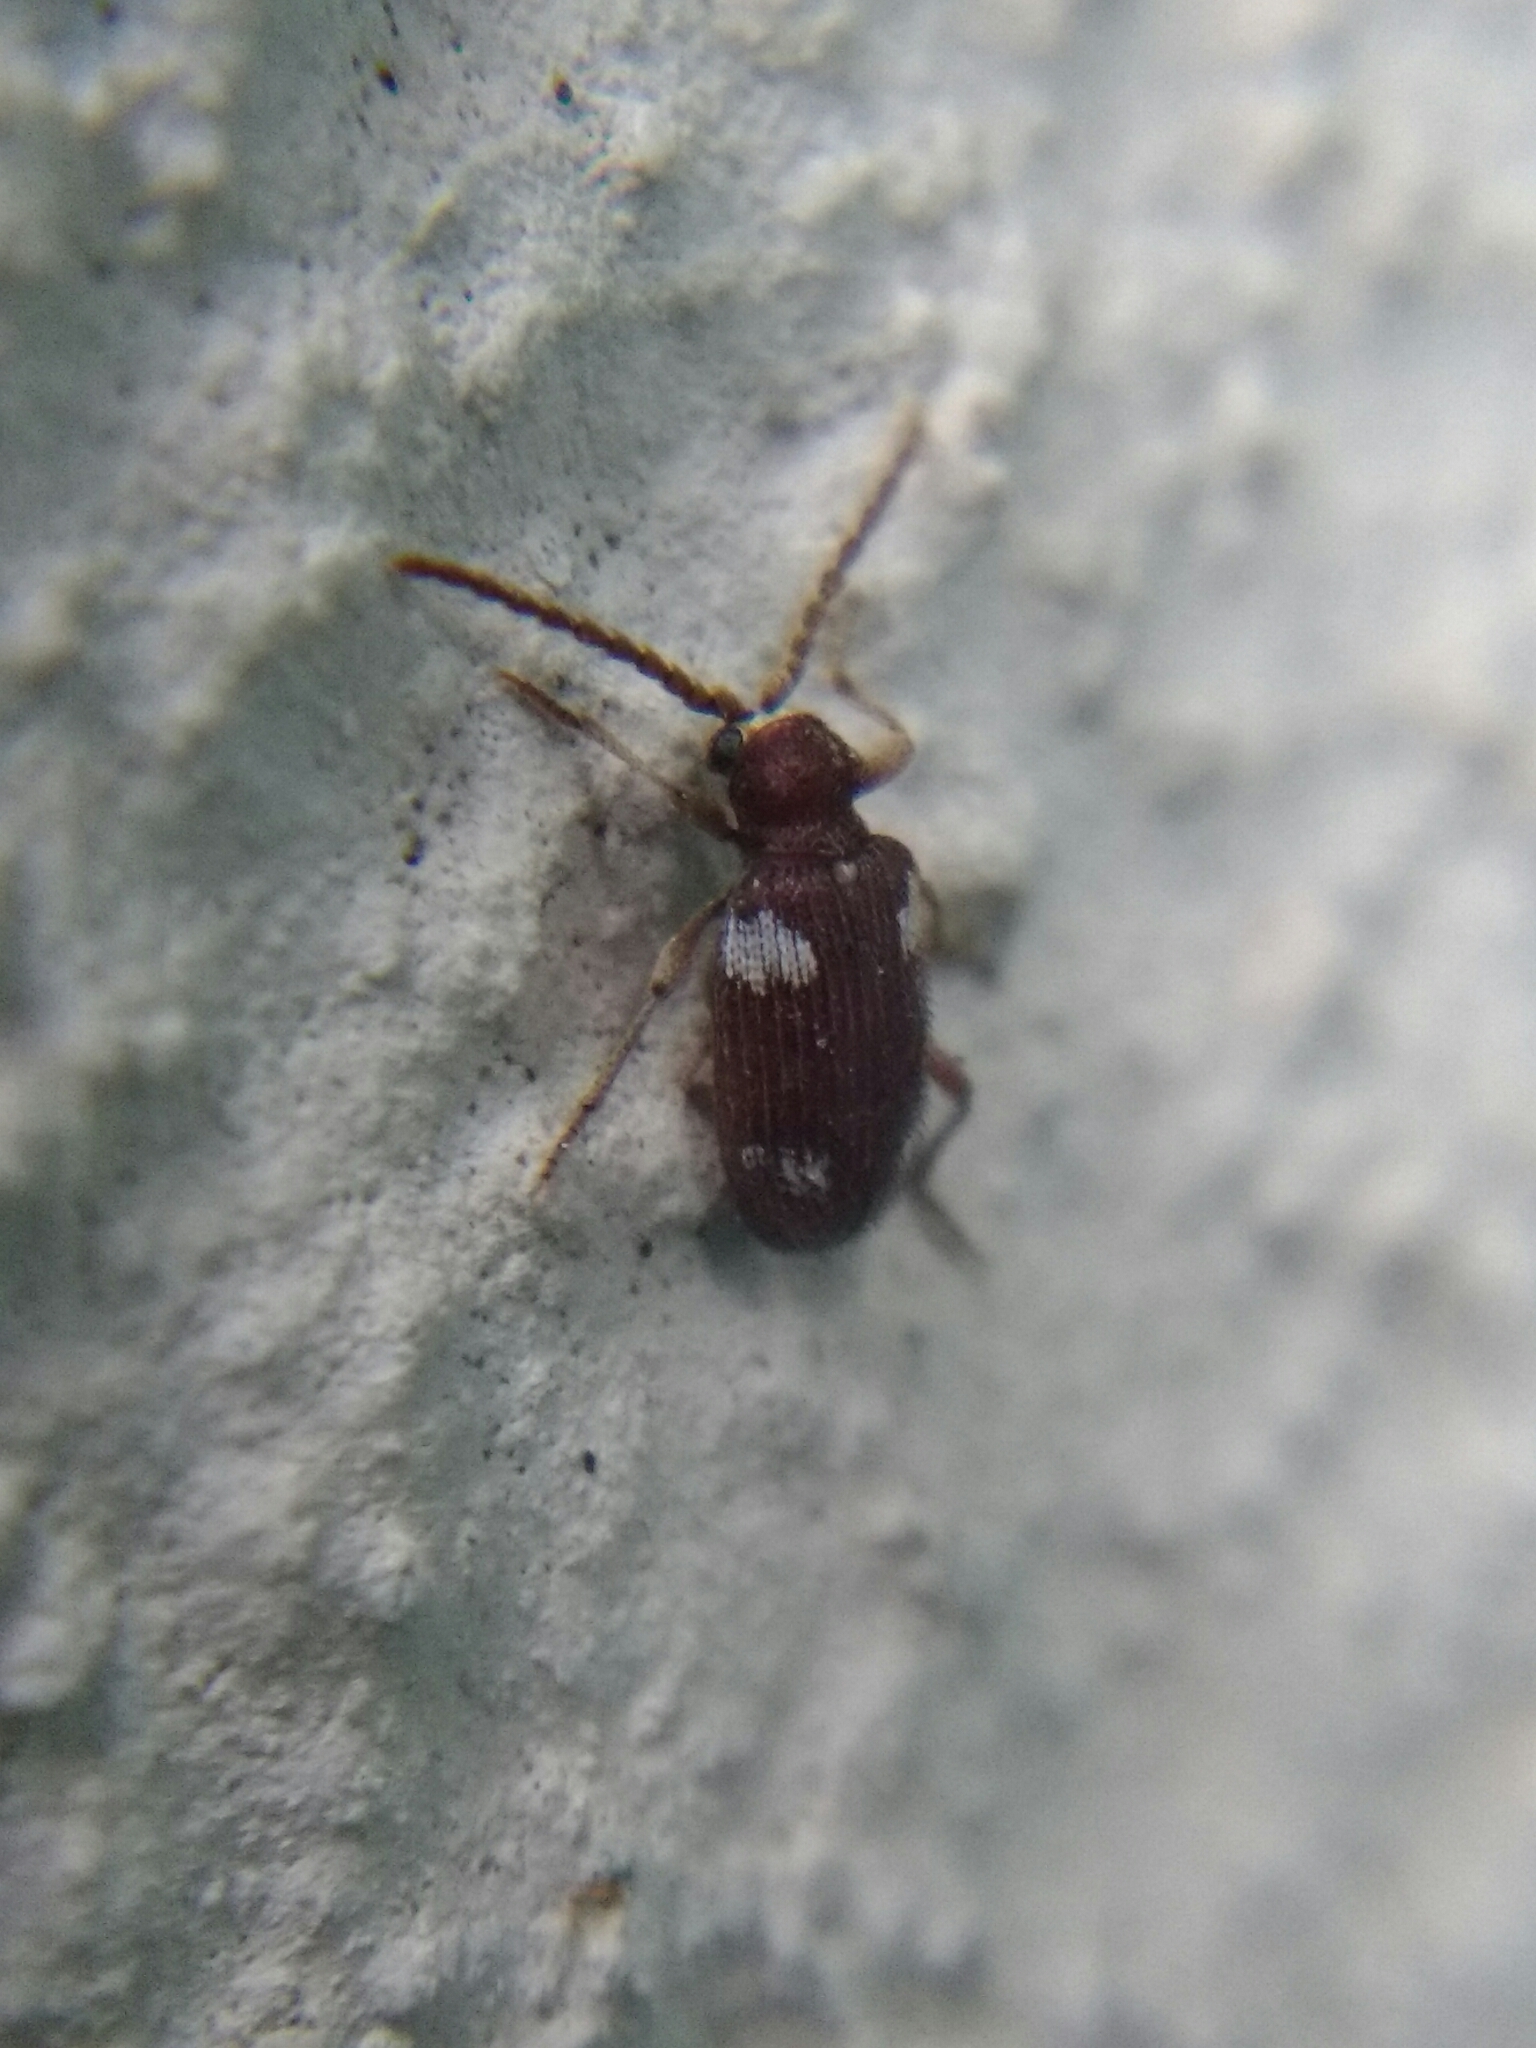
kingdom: Animalia
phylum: Arthropoda
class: Insecta
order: Coleoptera
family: Ptinidae
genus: Ptinus
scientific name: Ptinus sexpunctatus
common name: Six-spotted spider beetle
